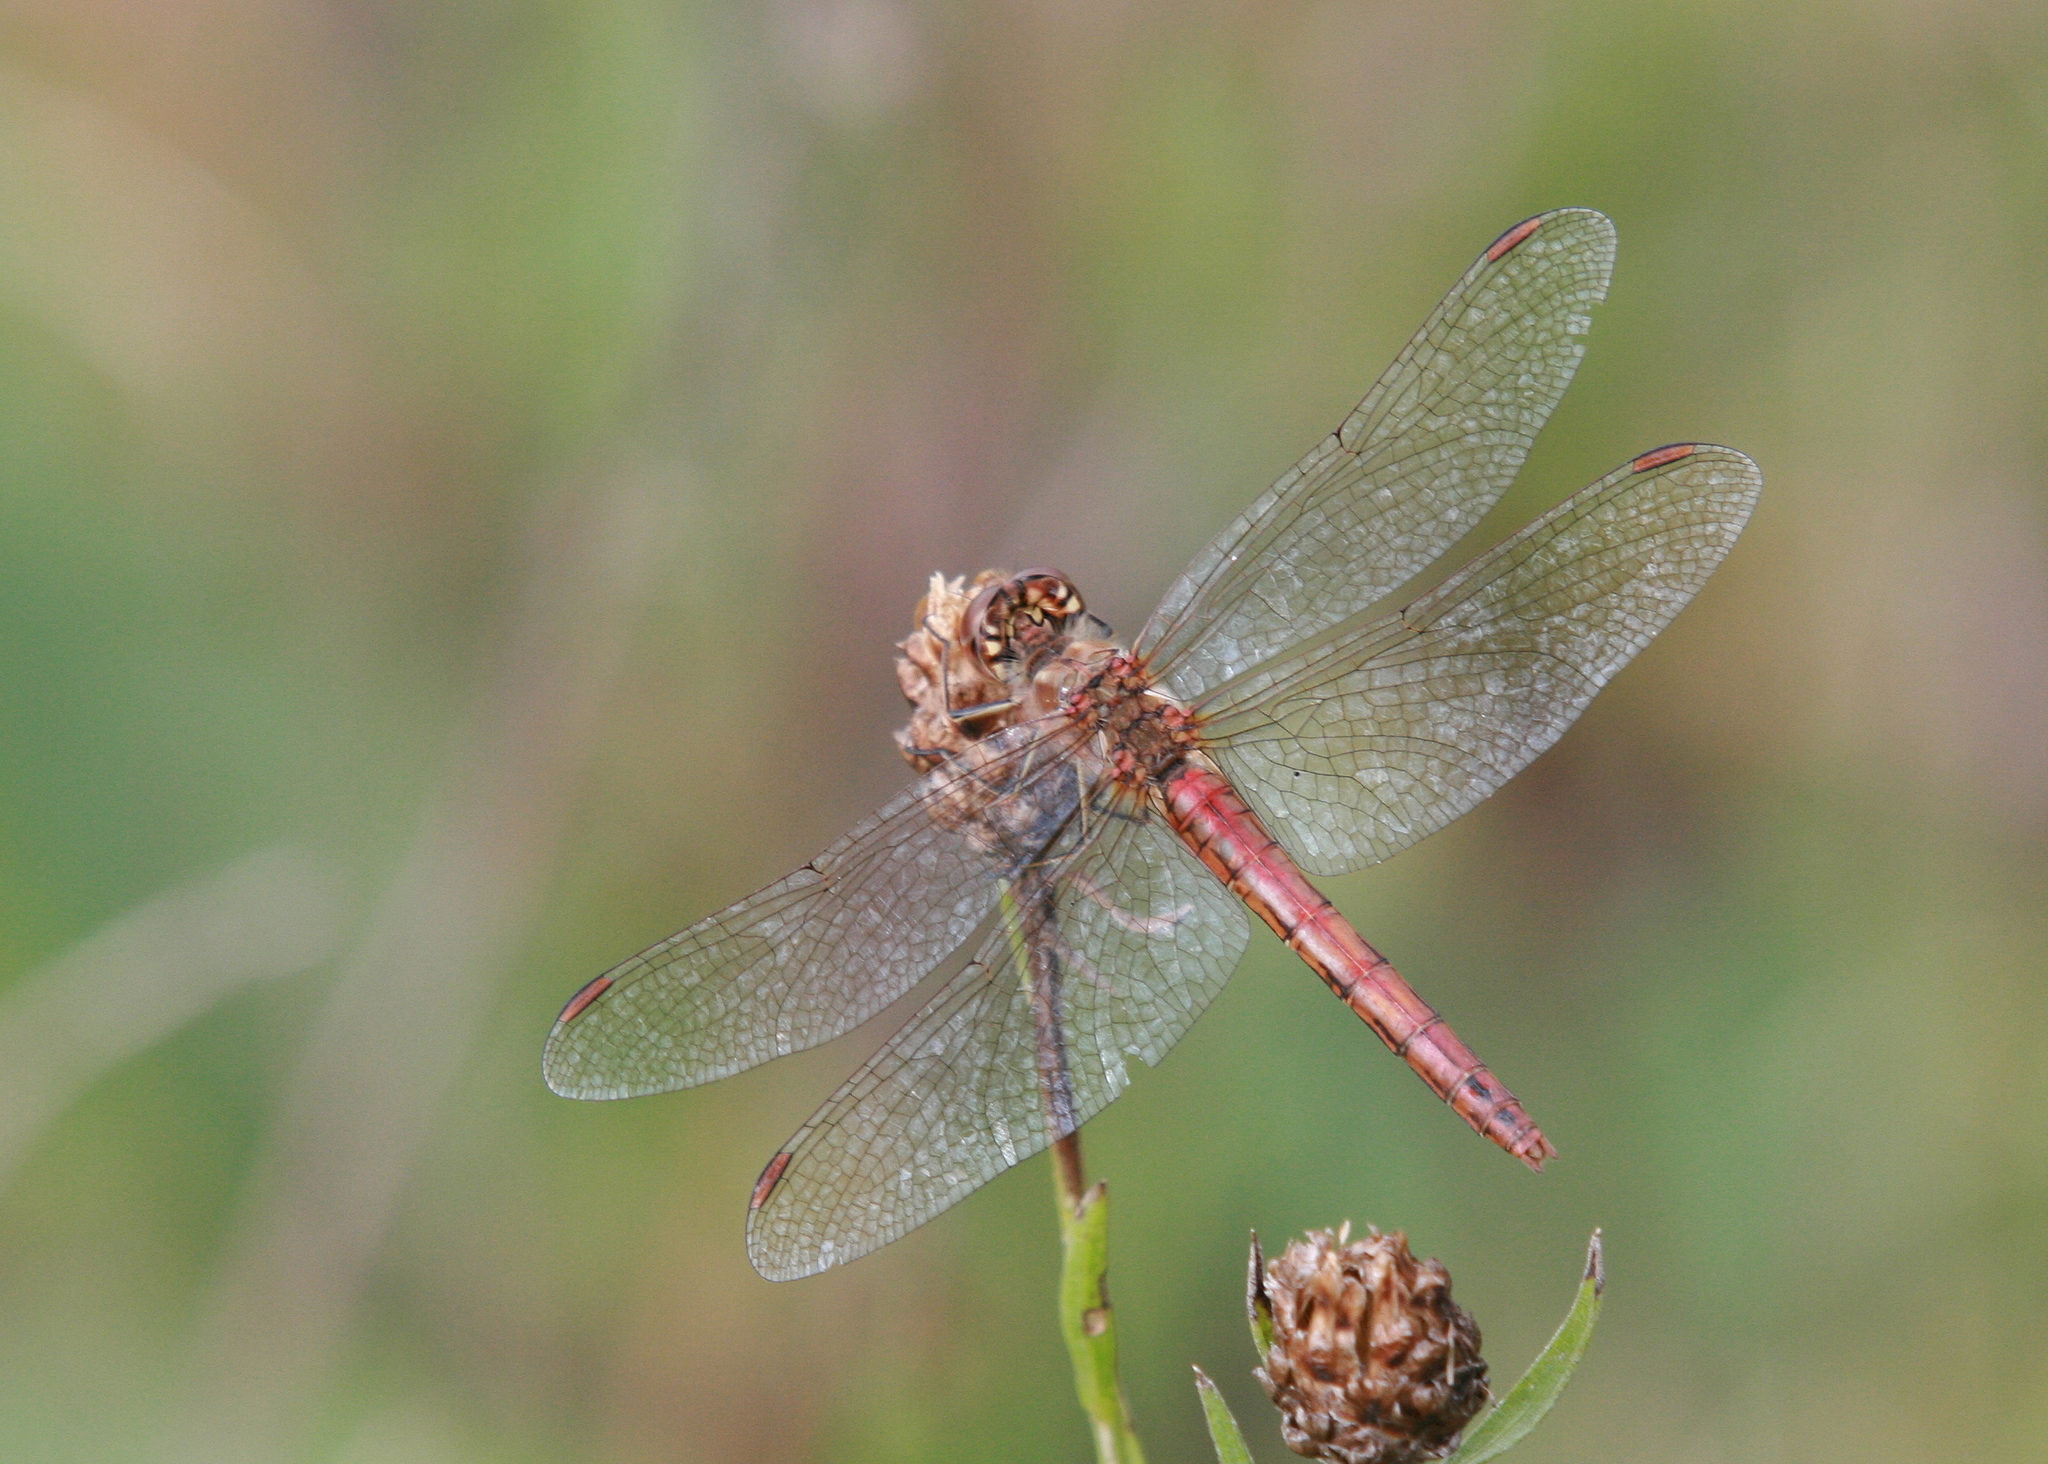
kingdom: Animalia
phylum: Arthropoda
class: Insecta
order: Odonata
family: Libellulidae
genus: Sympetrum
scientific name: Sympetrum vulgatum
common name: Vagrant darter
